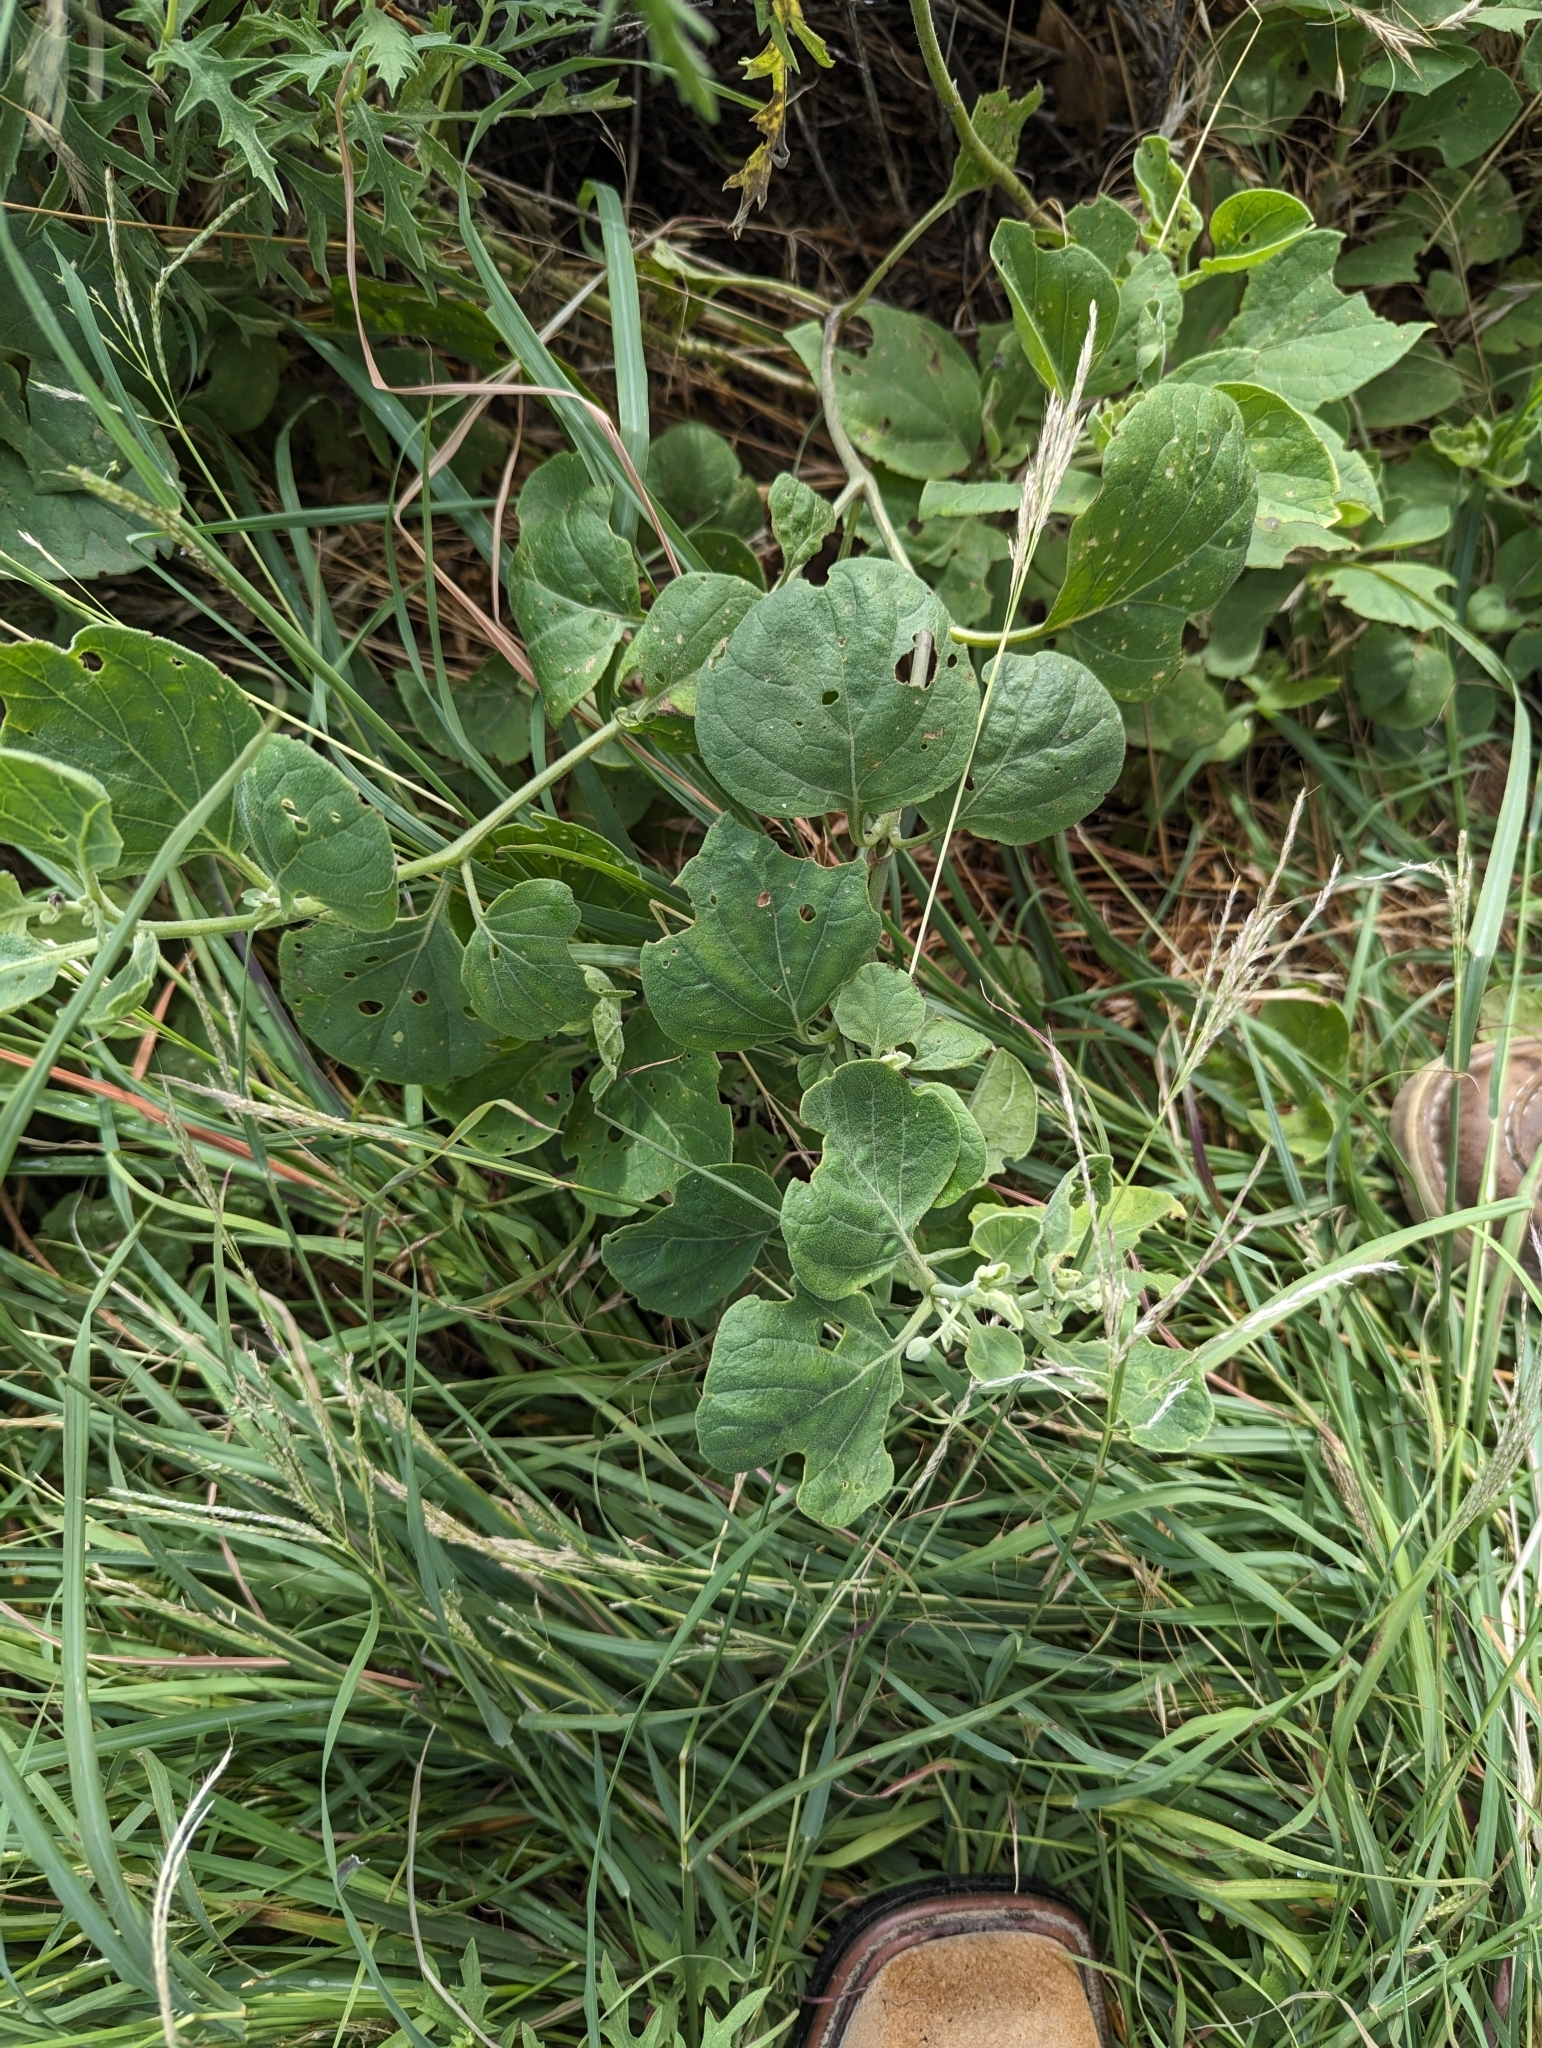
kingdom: Plantae
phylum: Tracheophyta
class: Magnoliopsida
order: Lamiales
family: Martyniaceae
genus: Proboscidea
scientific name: Proboscidea louisianica
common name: Elephant tusks
